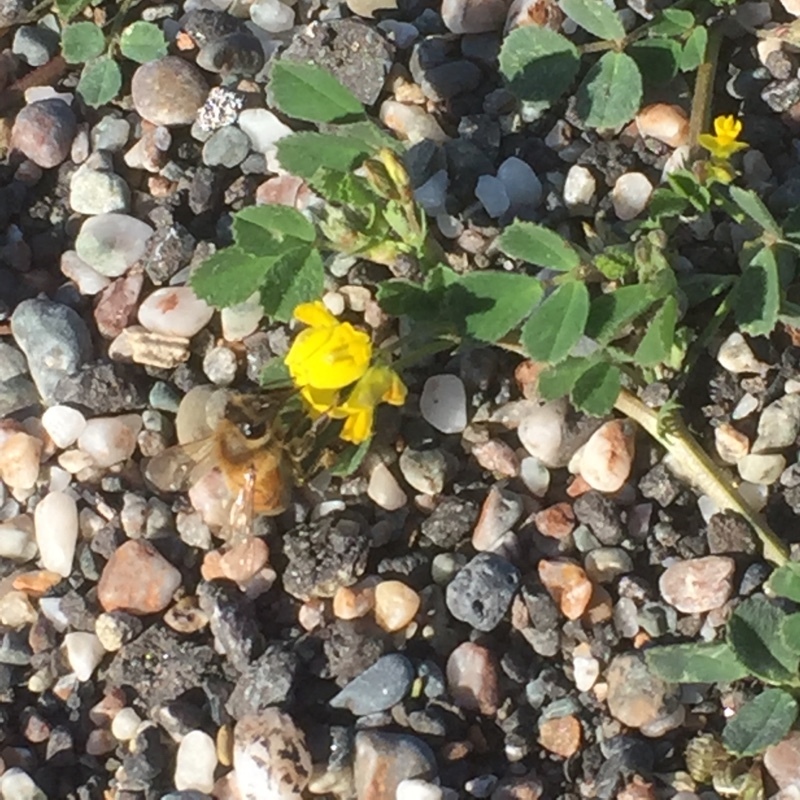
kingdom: Animalia
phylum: Arthropoda
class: Insecta
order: Hymenoptera
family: Apidae
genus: Apis
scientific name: Apis mellifera
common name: Honey bee
